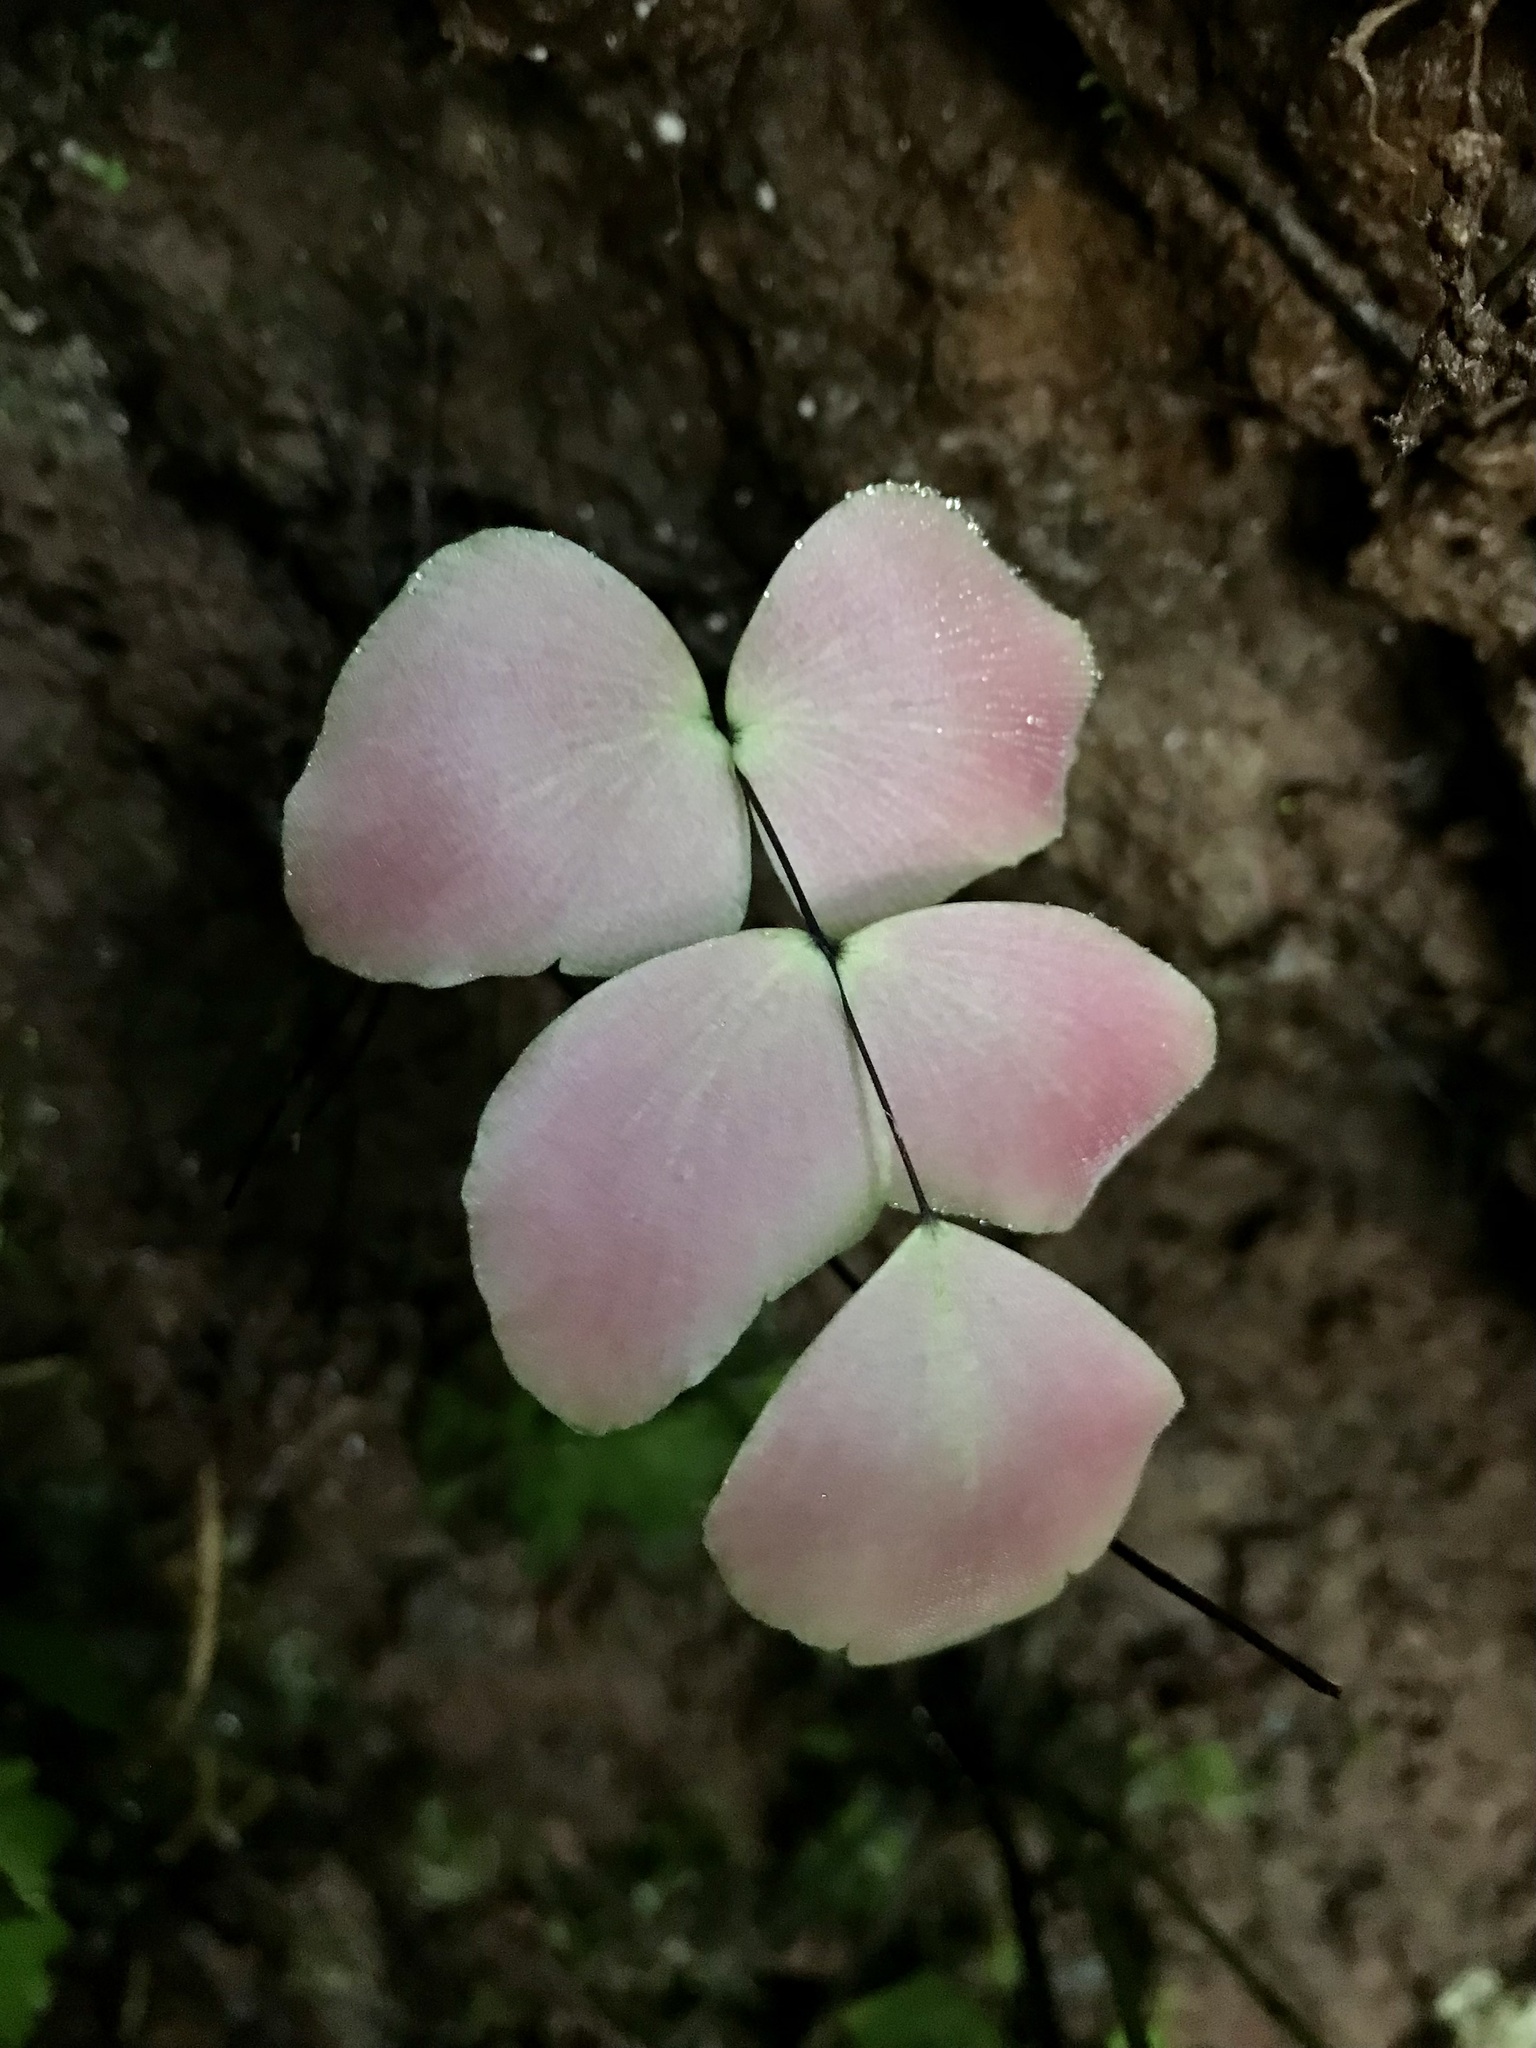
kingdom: Plantae
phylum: Tracheophyta
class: Polypodiopsida
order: Polypodiales
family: Pteridaceae
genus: Adiantum
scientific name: Adiantum macrophyllum
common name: Largeleaf maidenhair
